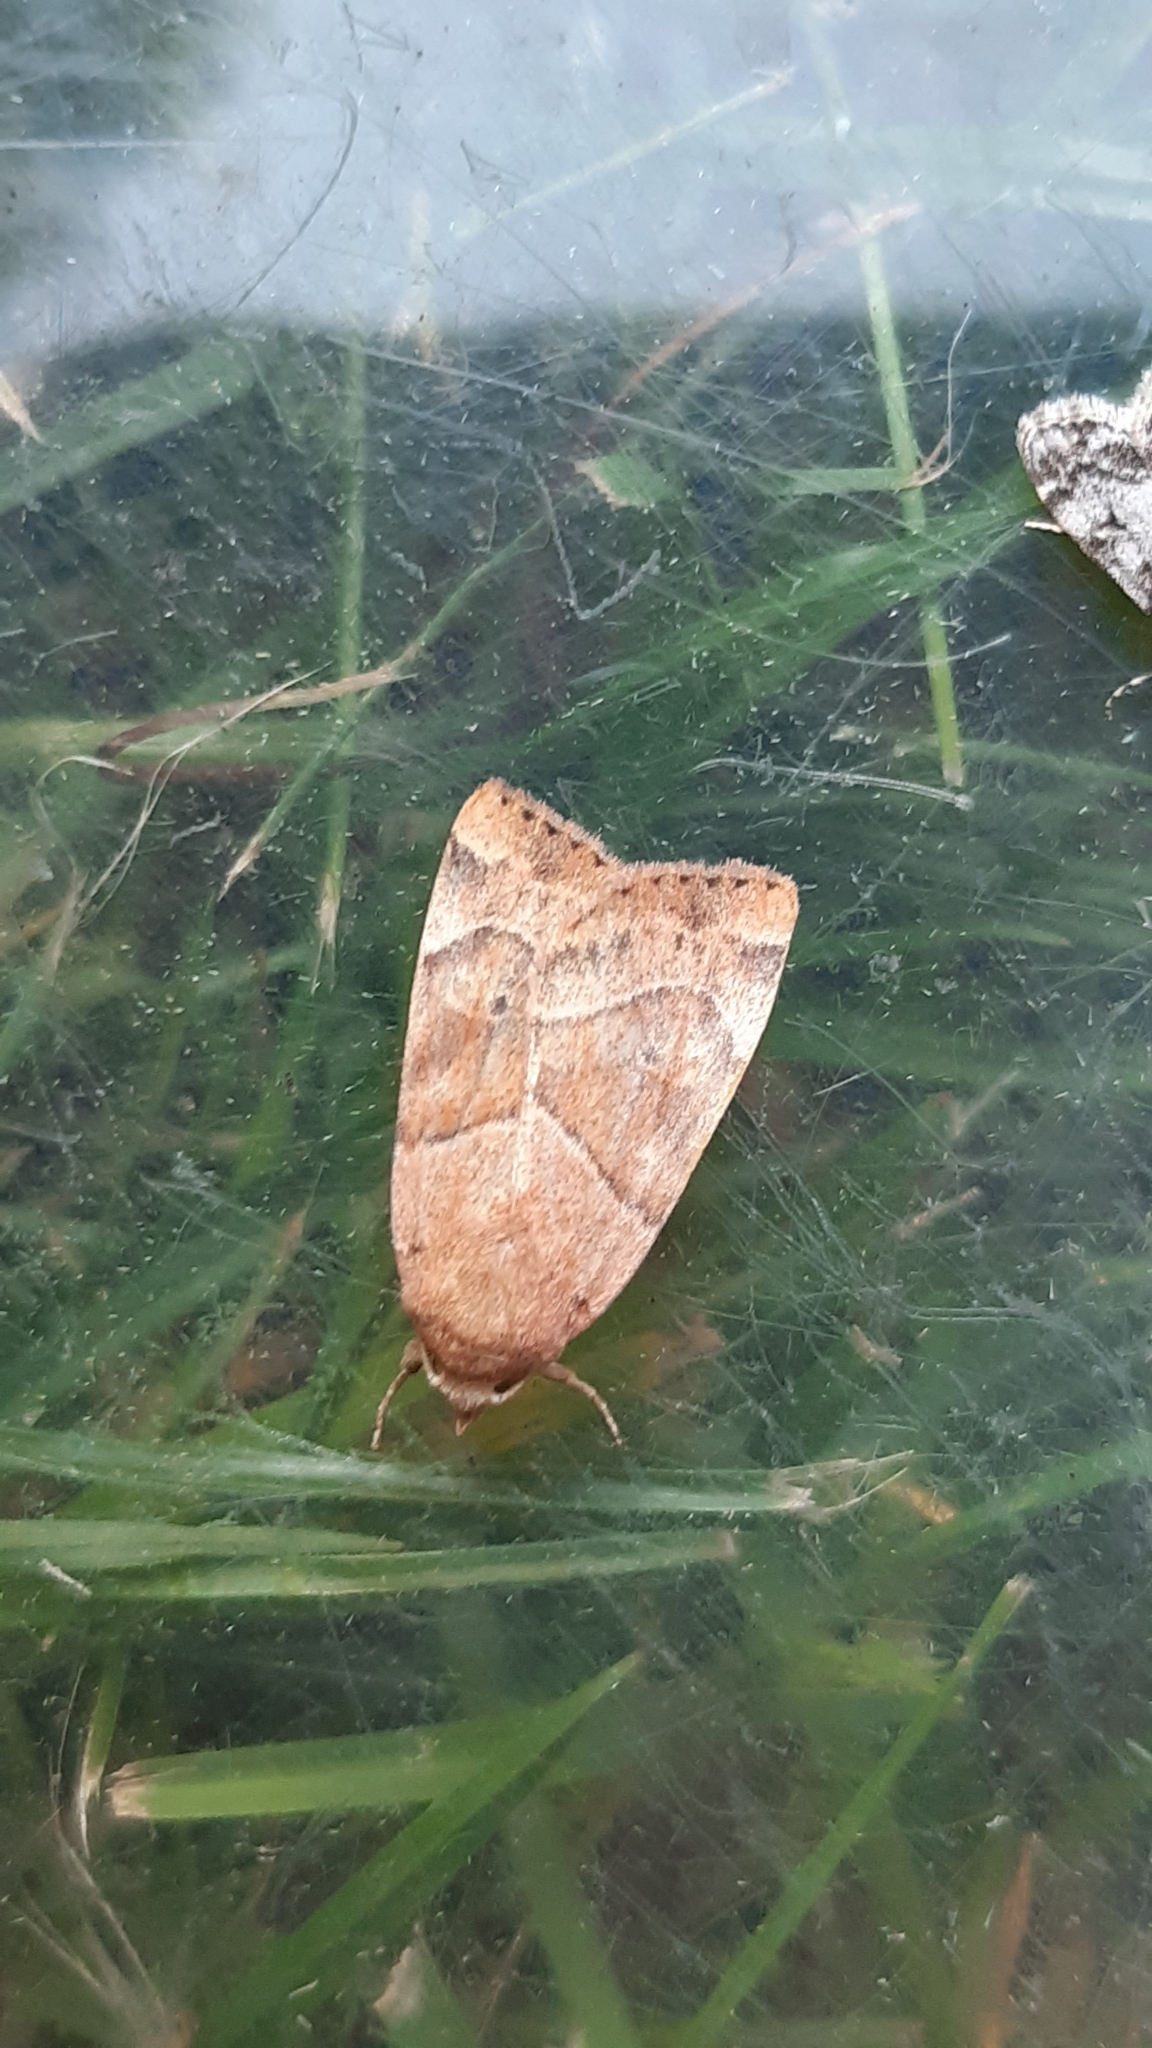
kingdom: Animalia
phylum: Arthropoda
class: Insecta
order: Lepidoptera
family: Noctuidae
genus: Cosmia
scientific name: Cosmia trapezina
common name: Dun-bar
